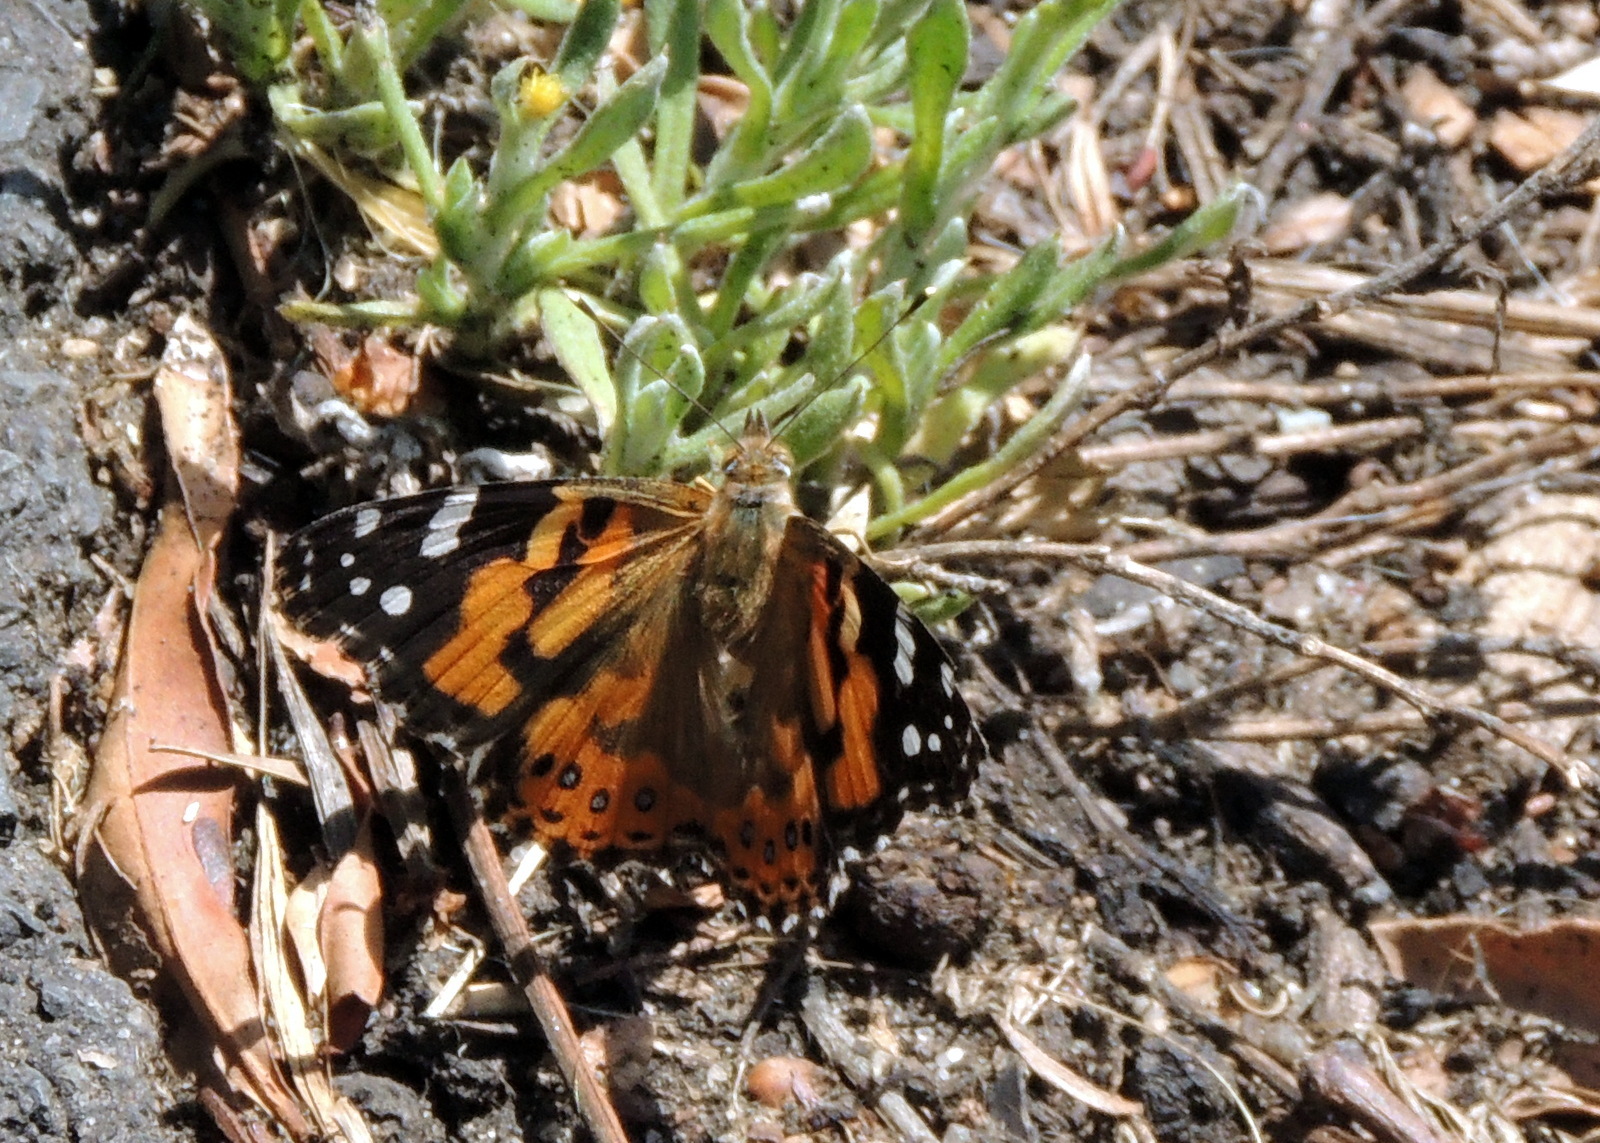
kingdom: Animalia
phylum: Arthropoda
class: Insecta
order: Lepidoptera
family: Nymphalidae
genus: Vanessa
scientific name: Vanessa kershawi
